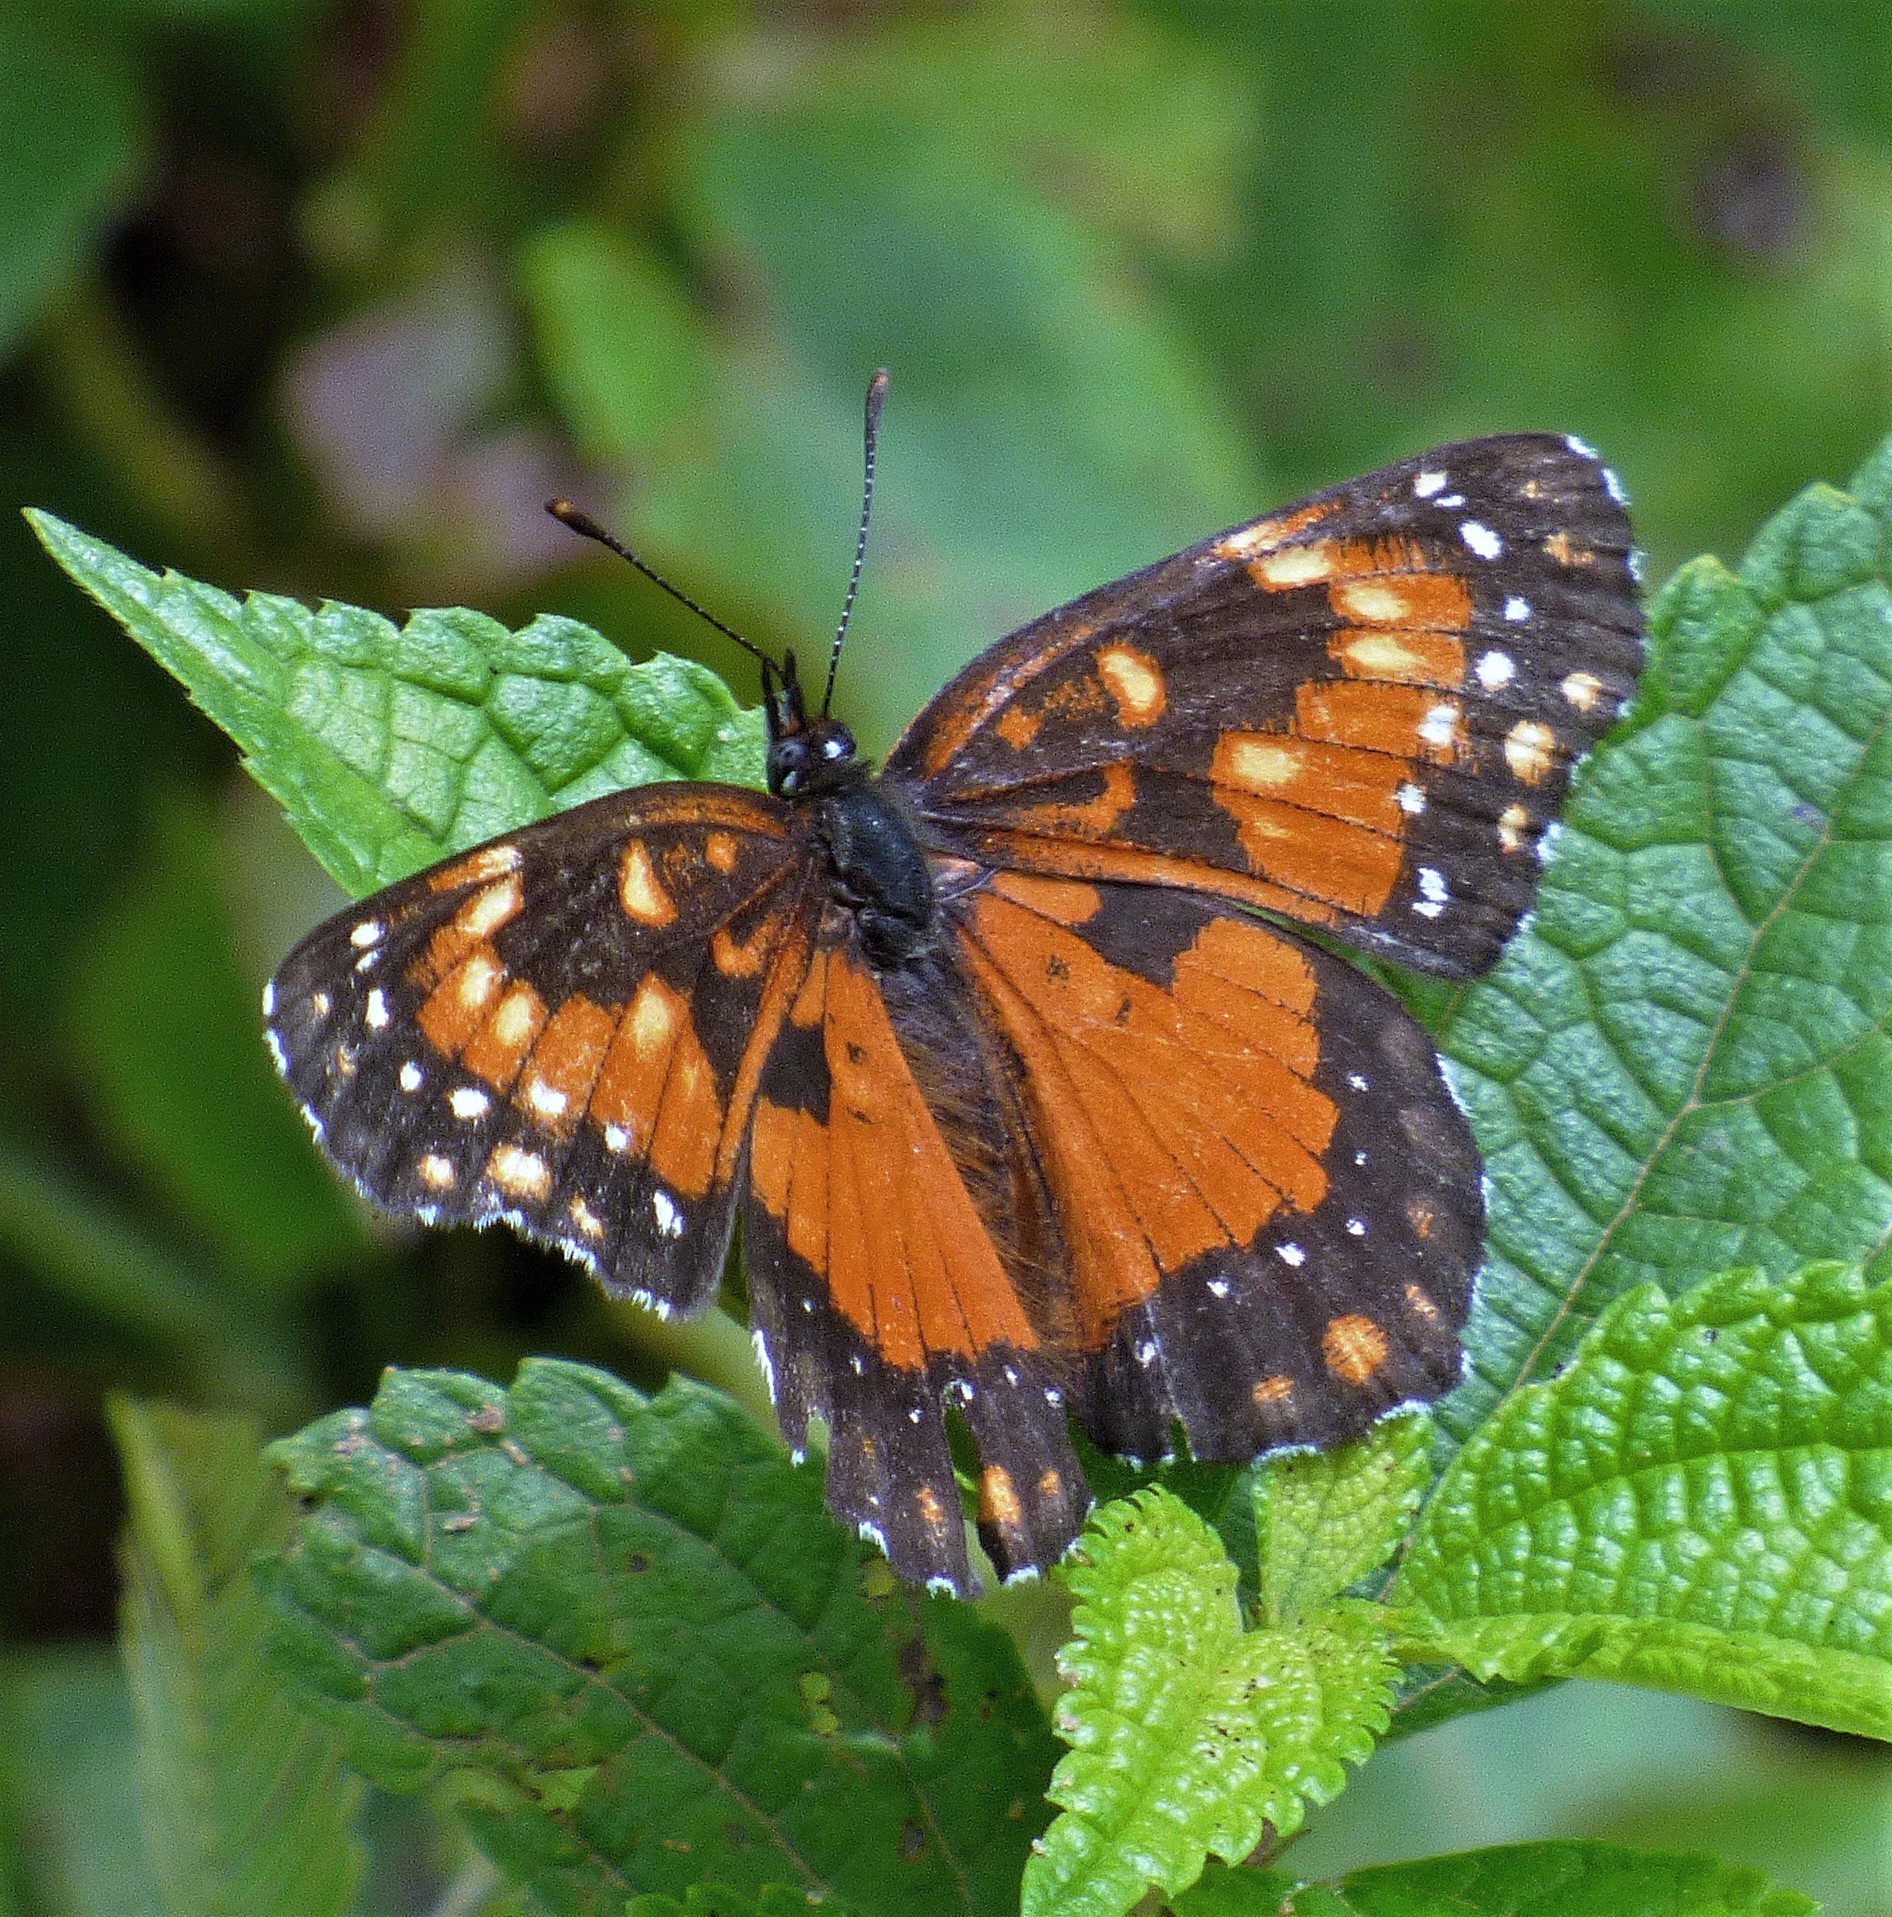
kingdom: Animalia
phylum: Arthropoda
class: Insecta
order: Lepidoptera
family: Nymphalidae
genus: Chlosyne
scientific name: Chlosyne lacinia
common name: Bordered patch
